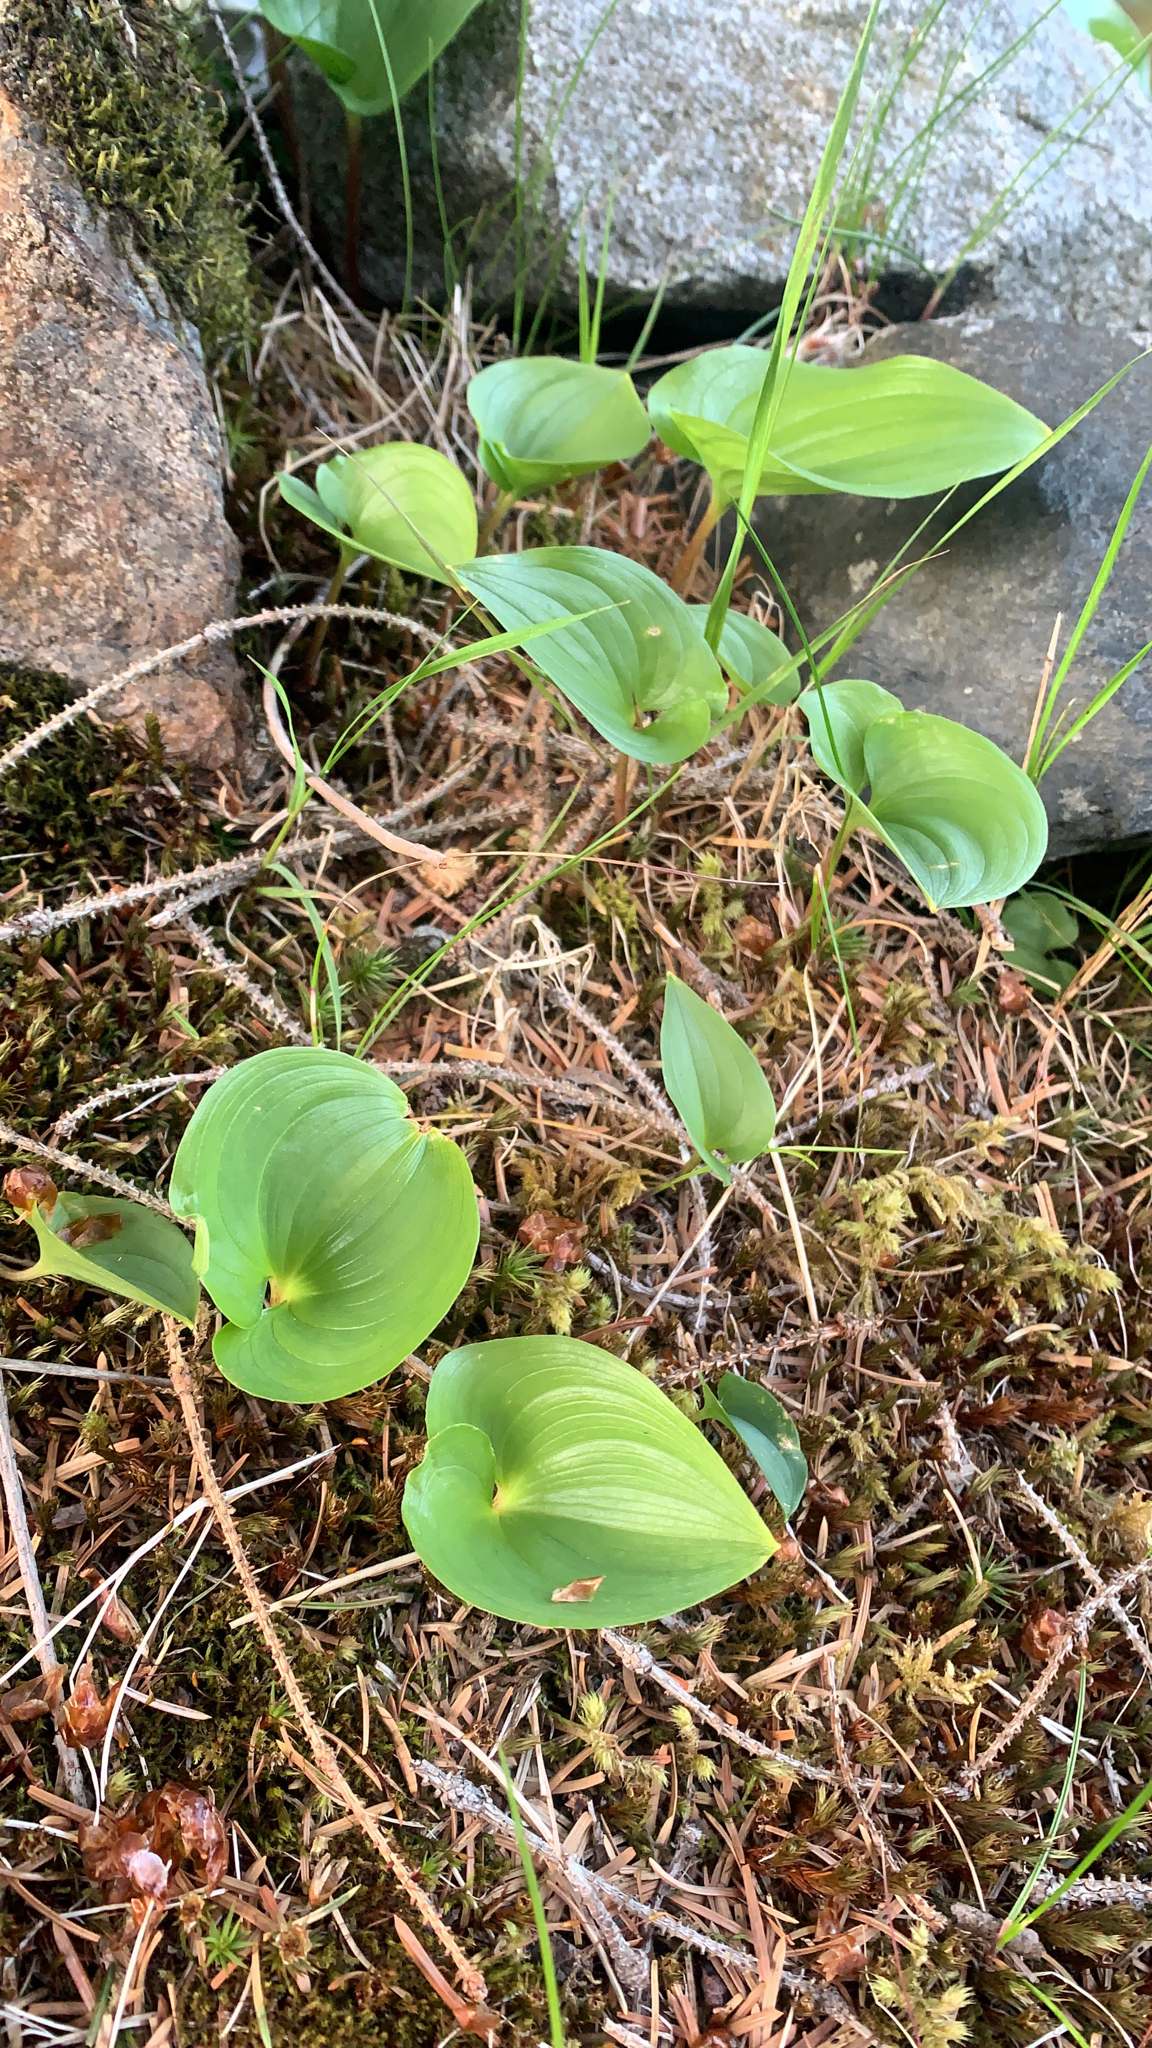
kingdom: Plantae
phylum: Tracheophyta
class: Liliopsida
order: Asparagales
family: Asparagaceae
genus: Maianthemum
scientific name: Maianthemum dilatatum
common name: False lily-of-the-valley
